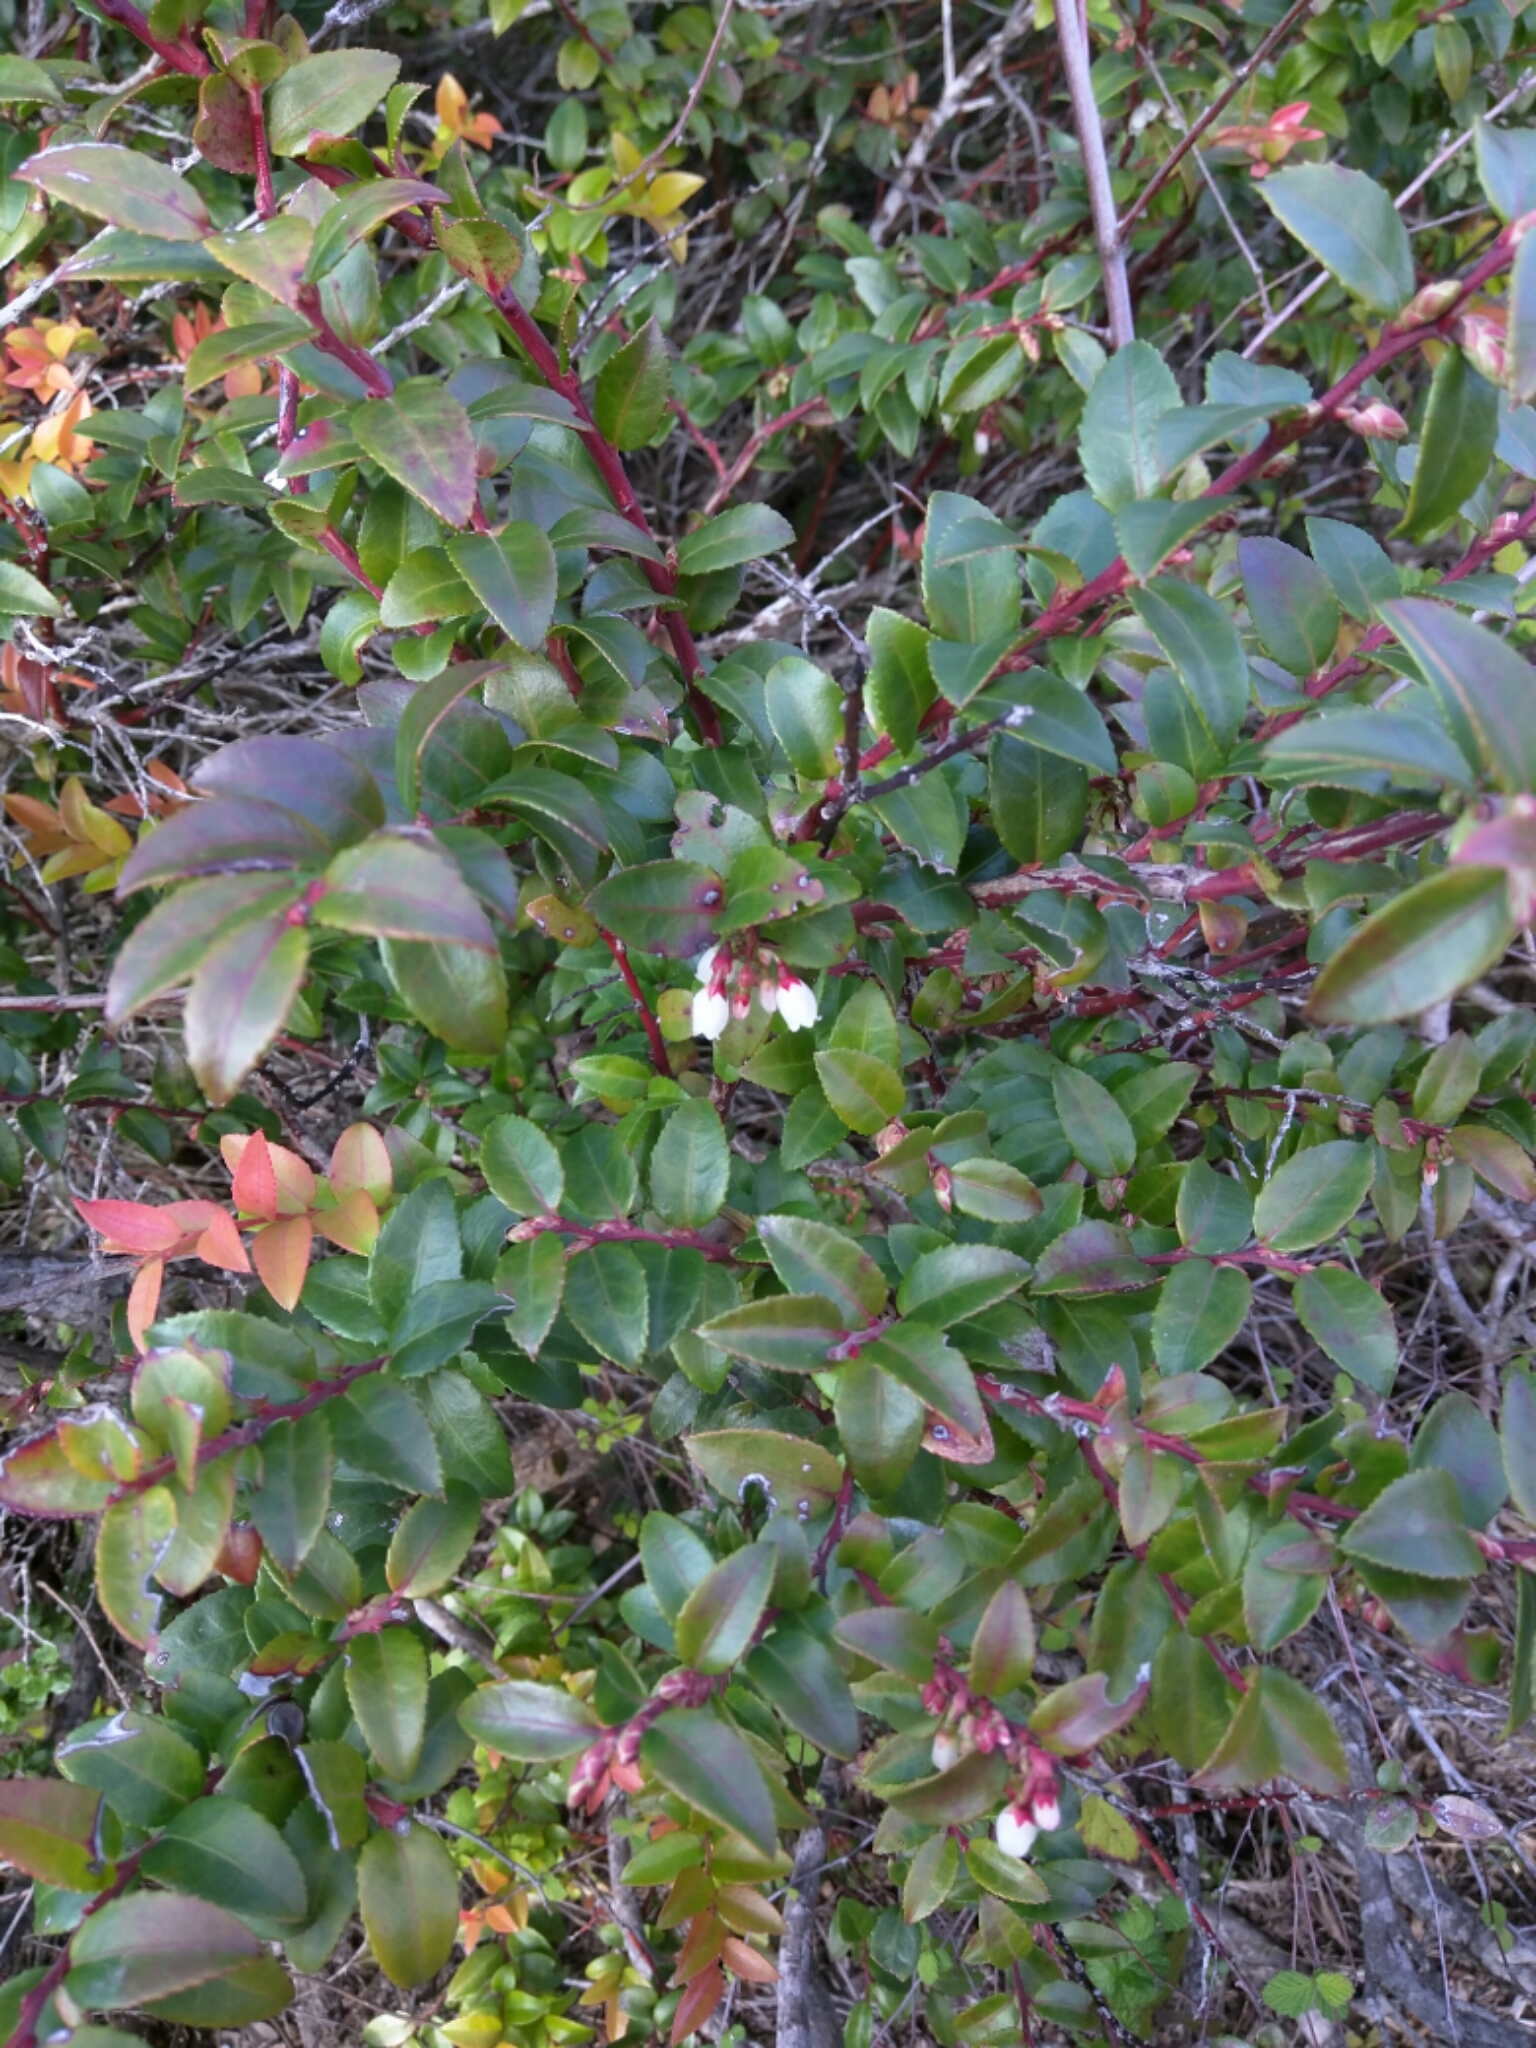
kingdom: Plantae
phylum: Tracheophyta
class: Magnoliopsida
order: Ericales
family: Ericaceae
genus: Vaccinium
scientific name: Vaccinium ovatum
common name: California-huckleberry
